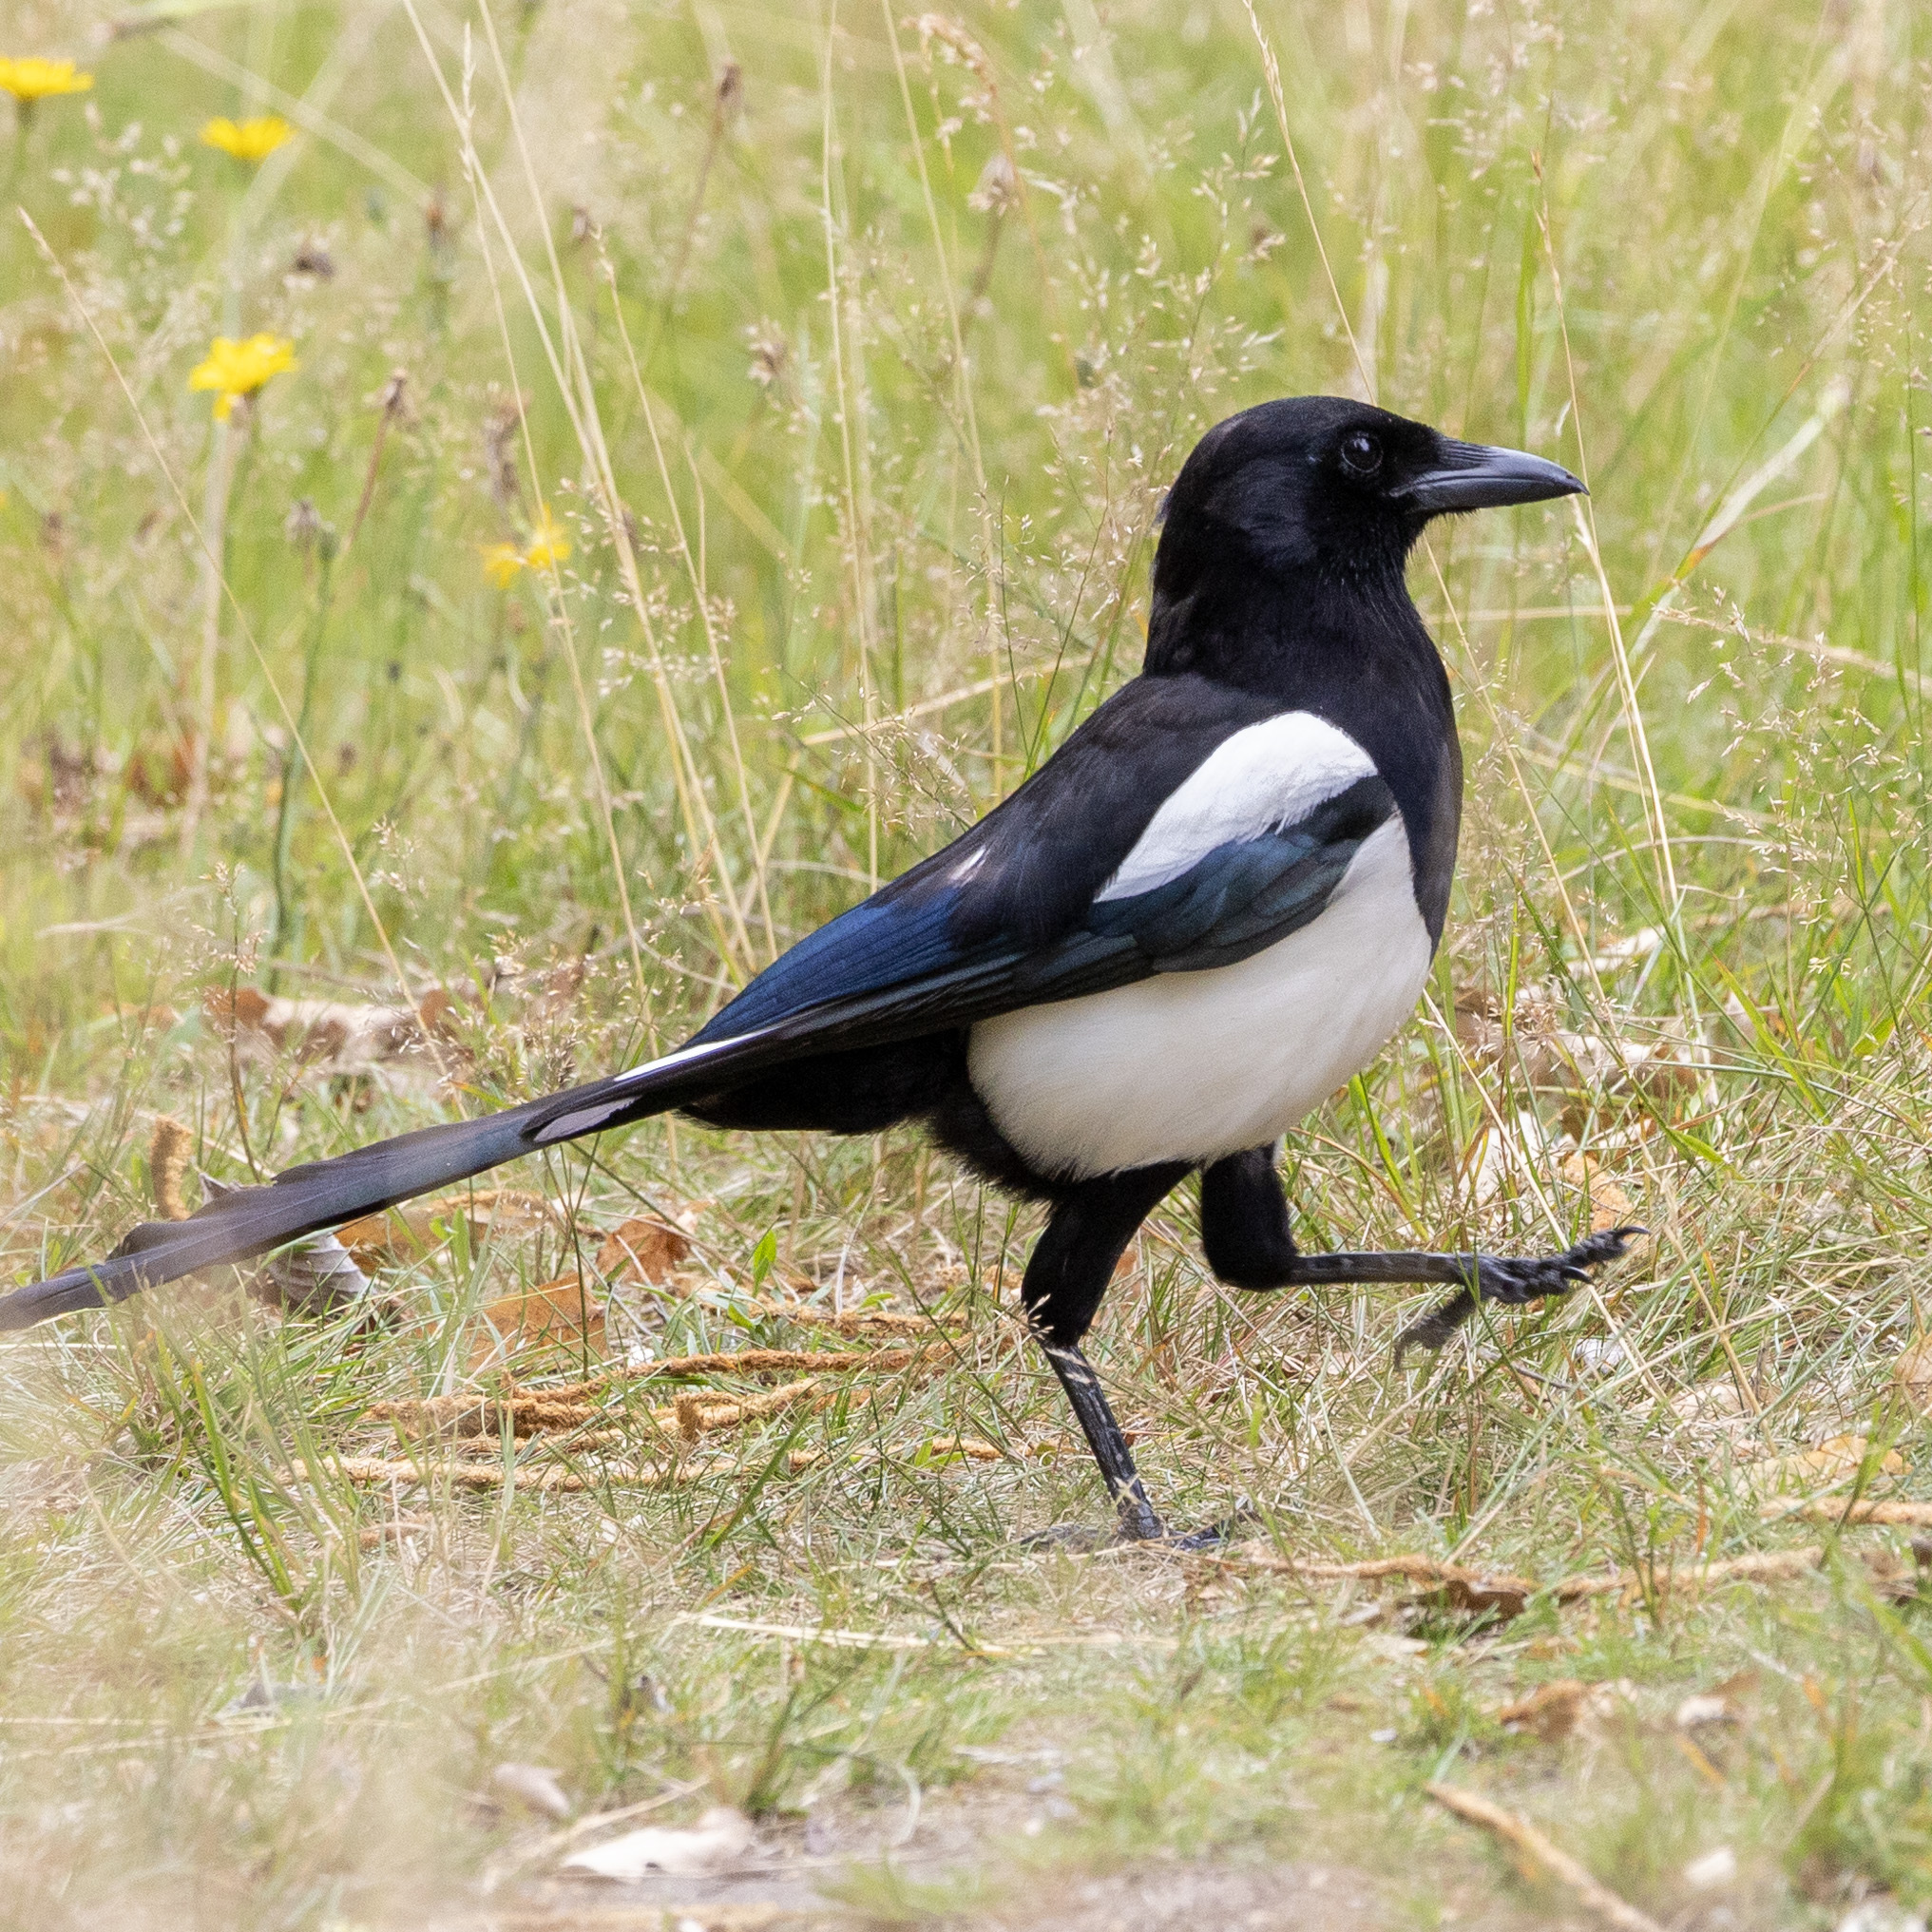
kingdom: Animalia
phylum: Chordata
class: Aves
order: Passeriformes
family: Corvidae
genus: Pica
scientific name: Pica pica
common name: Eurasian magpie
